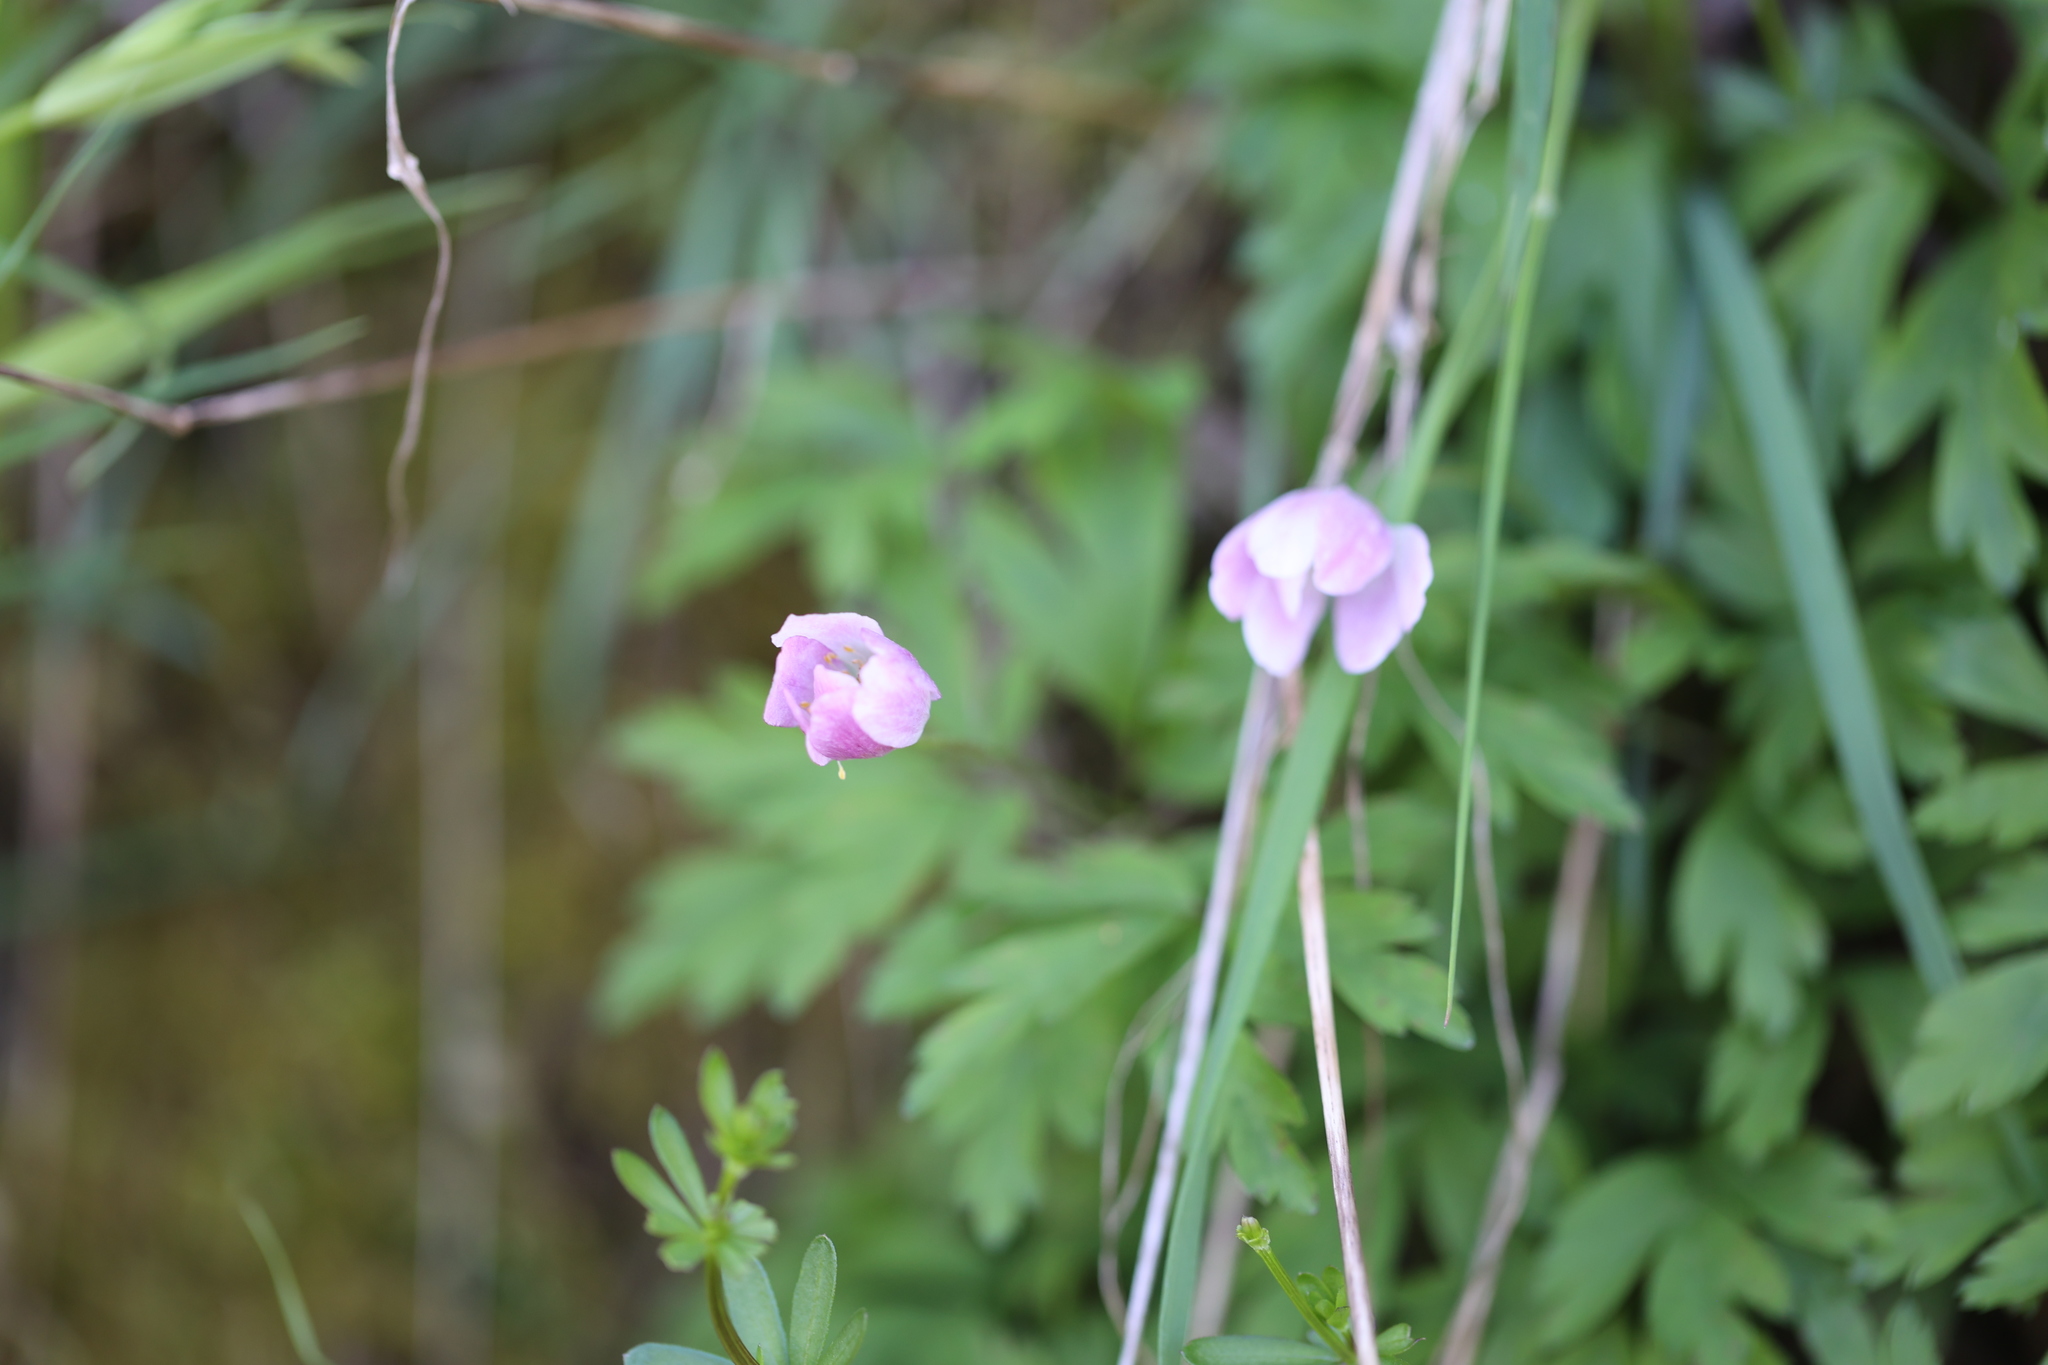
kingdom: Plantae
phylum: Tracheophyta
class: Magnoliopsida
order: Ranunculales
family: Ranunculaceae
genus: Anemone
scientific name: Anemone nemorosa
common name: Wood anemone
